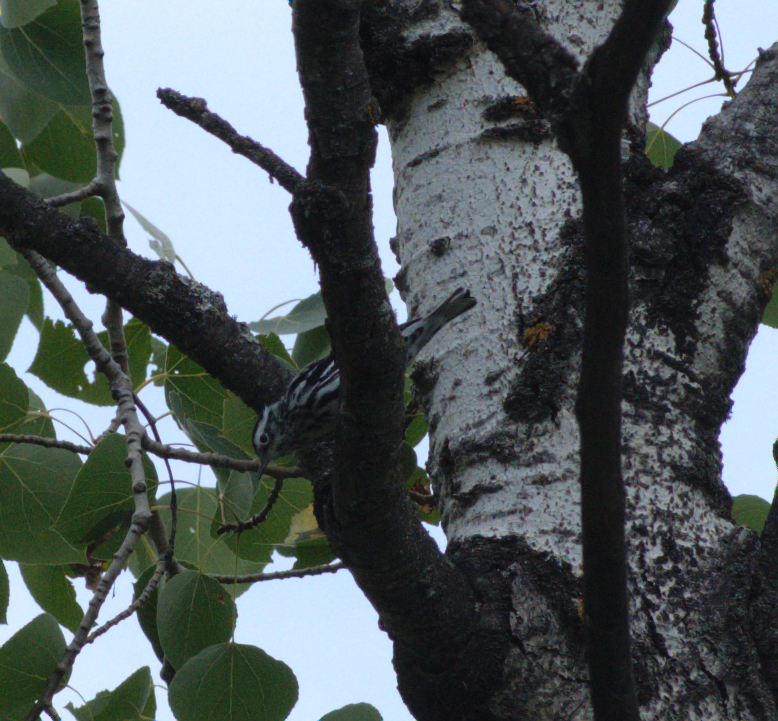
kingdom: Animalia
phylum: Chordata
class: Aves
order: Passeriformes
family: Parulidae
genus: Mniotilta
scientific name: Mniotilta varia
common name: Black-and-white warbler
